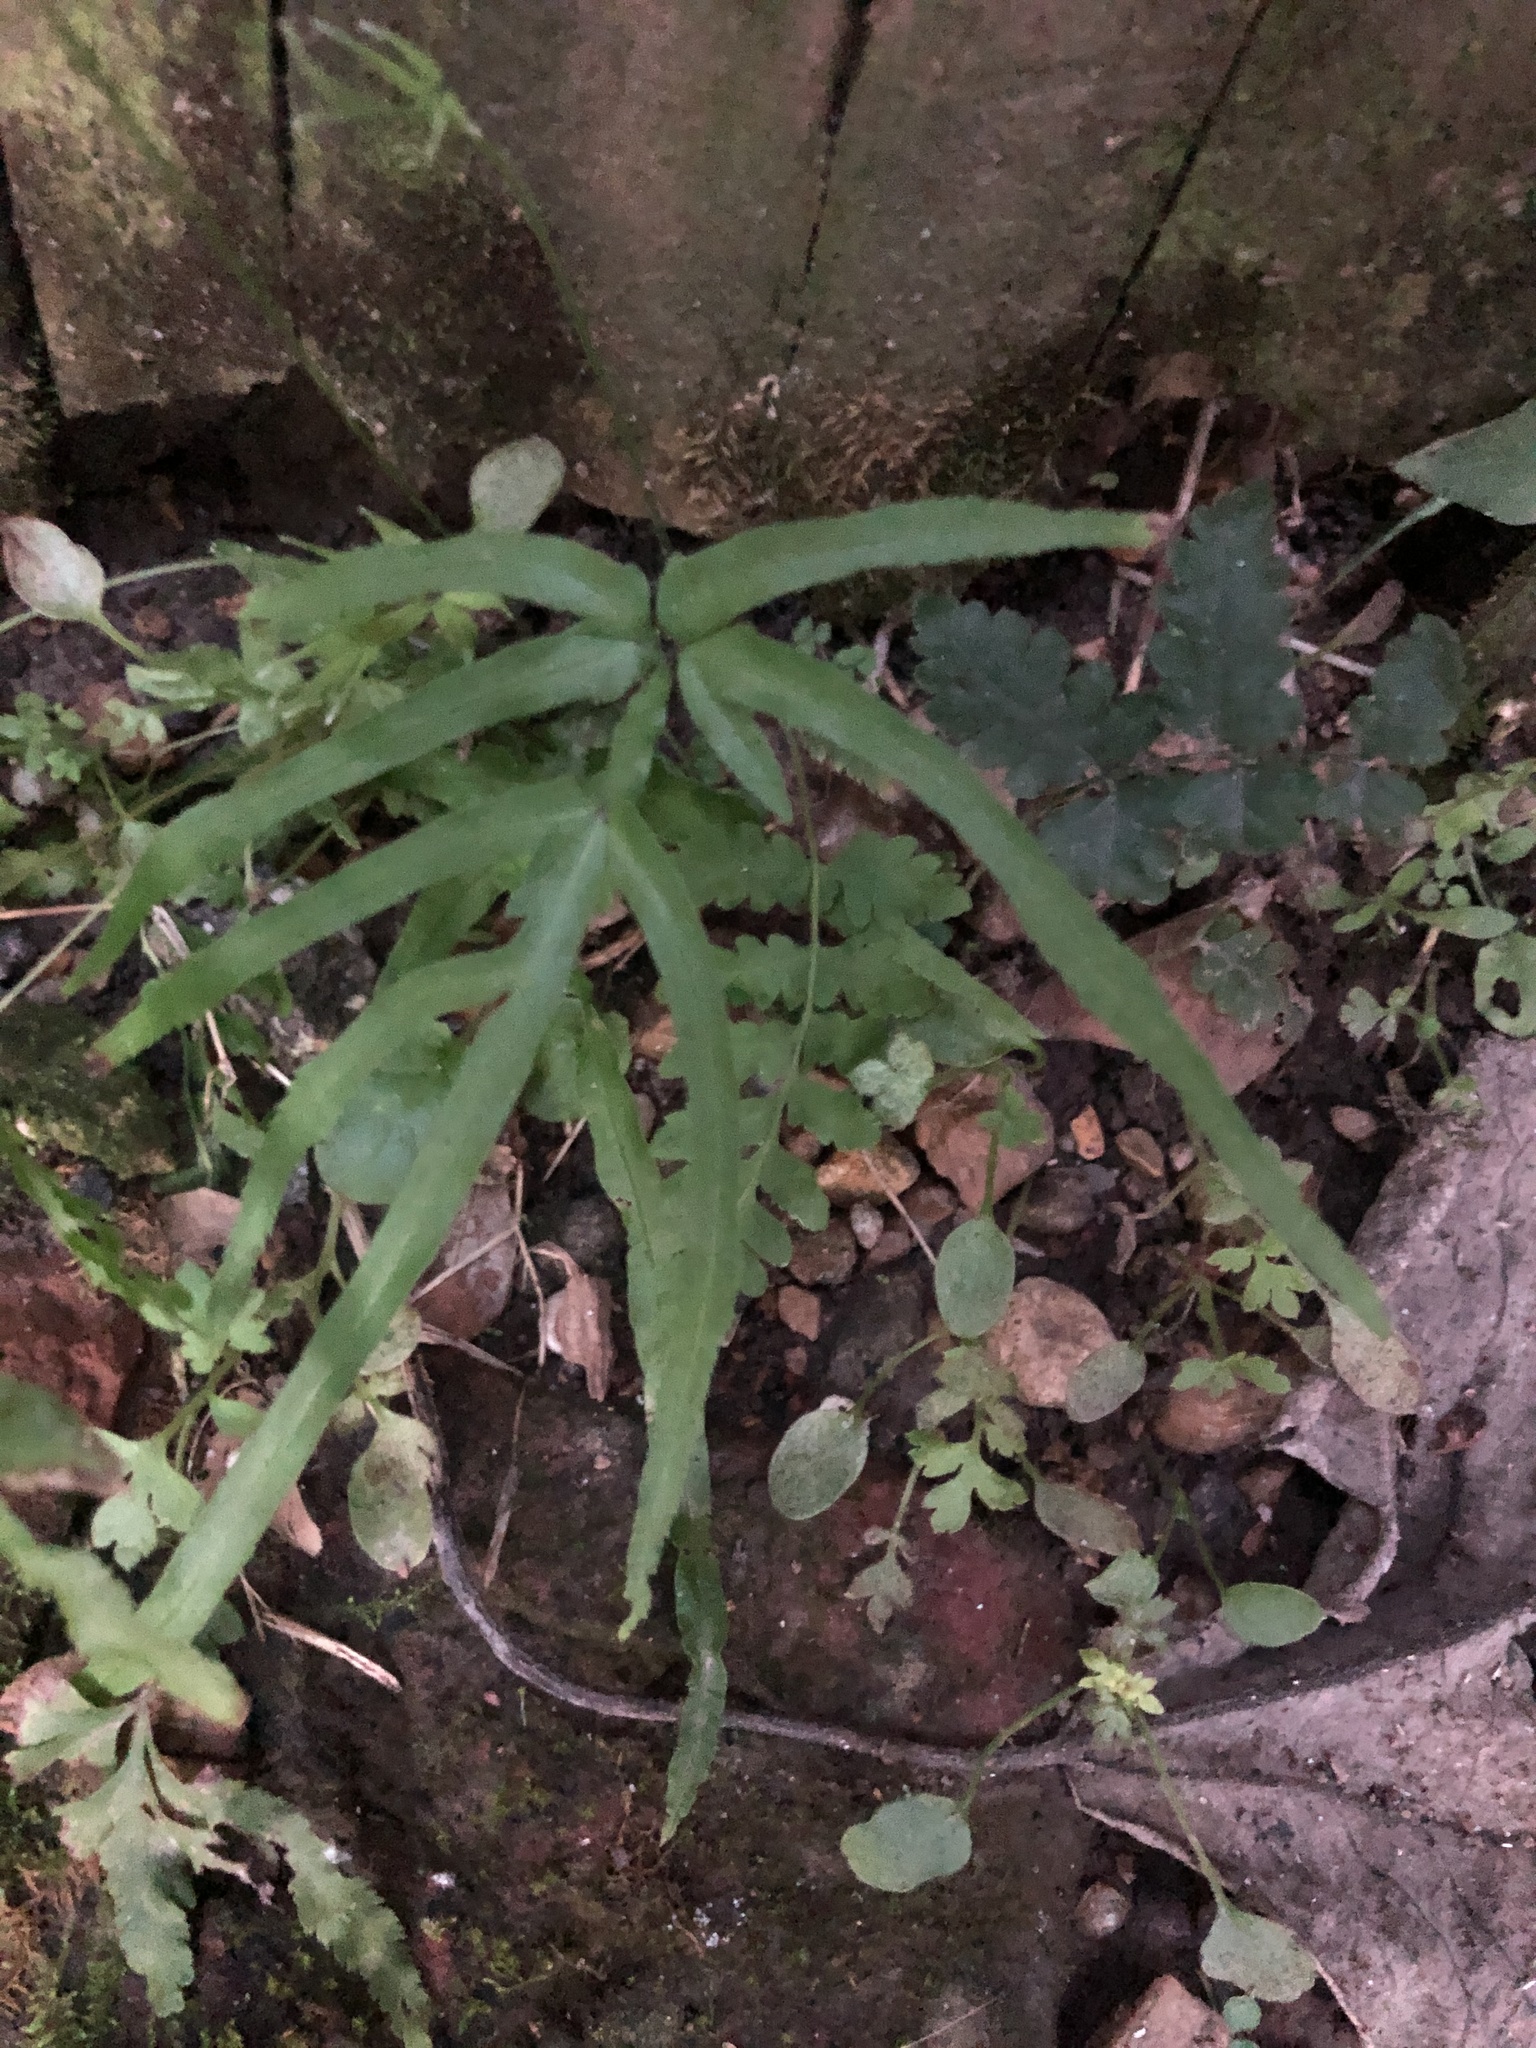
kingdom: Plantae
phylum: Tracheophyta
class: Polypodiopsida
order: Polypodiales
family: Pteridaceae
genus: Pteris
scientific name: Pteris multifida
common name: Spider brake
